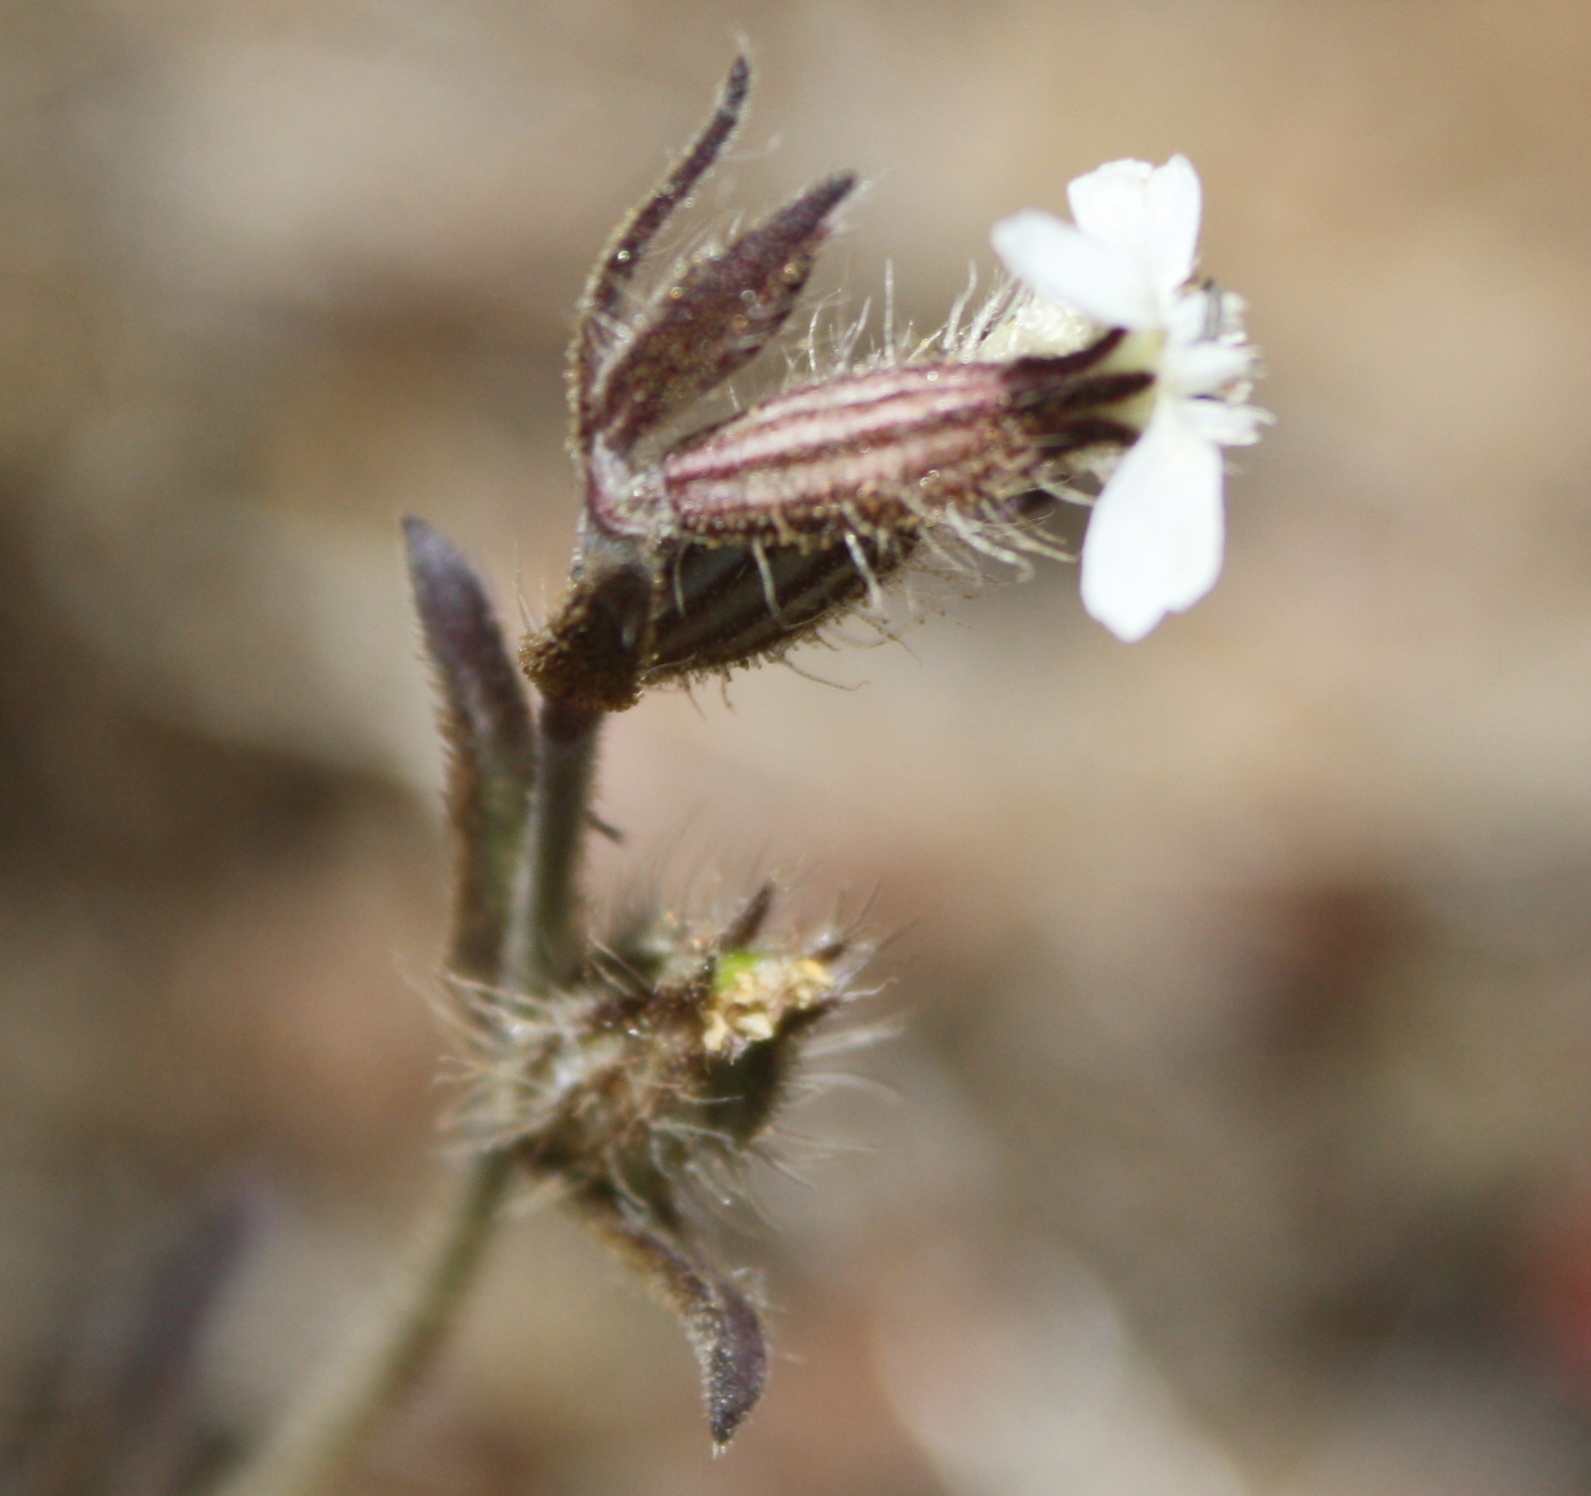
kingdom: Plantae
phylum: Tracheophyta
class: Magnoliopsida
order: Caryophyllales
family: Caryophyllaceae
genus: Silene
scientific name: Silene gallica
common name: Small-flowered catchfly
